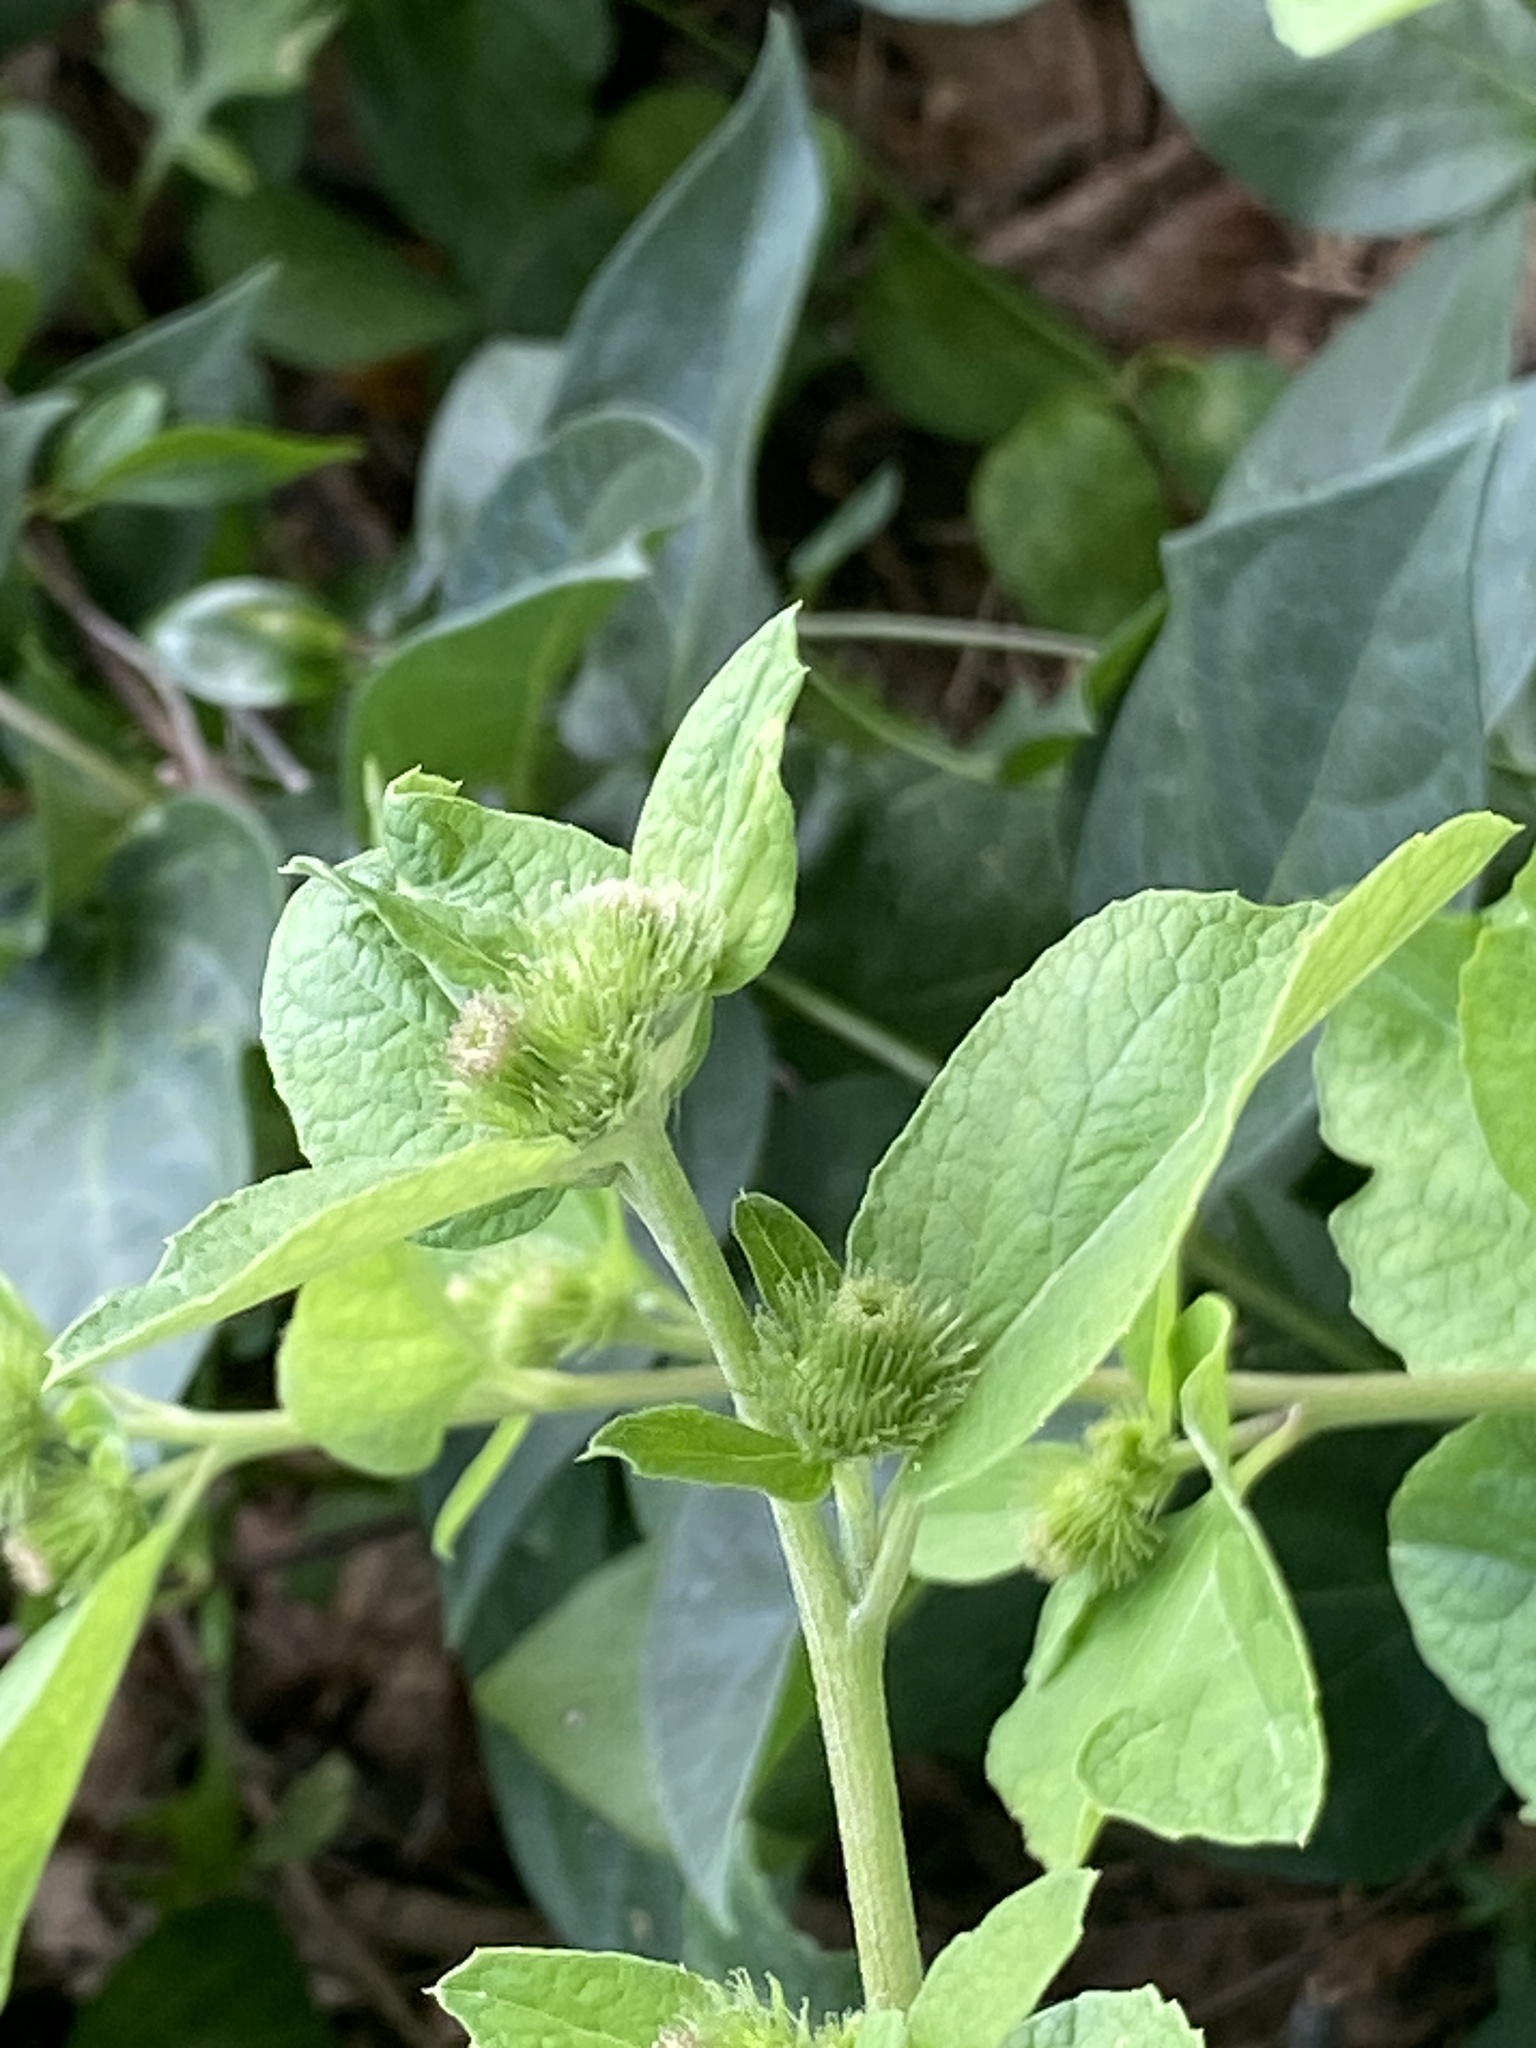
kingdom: Plantae
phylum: Tracheophyta
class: Magnoliopsida
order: Asterales
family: Asteraceae
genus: Arctium
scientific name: Arctium minus
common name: Lesser burdock
